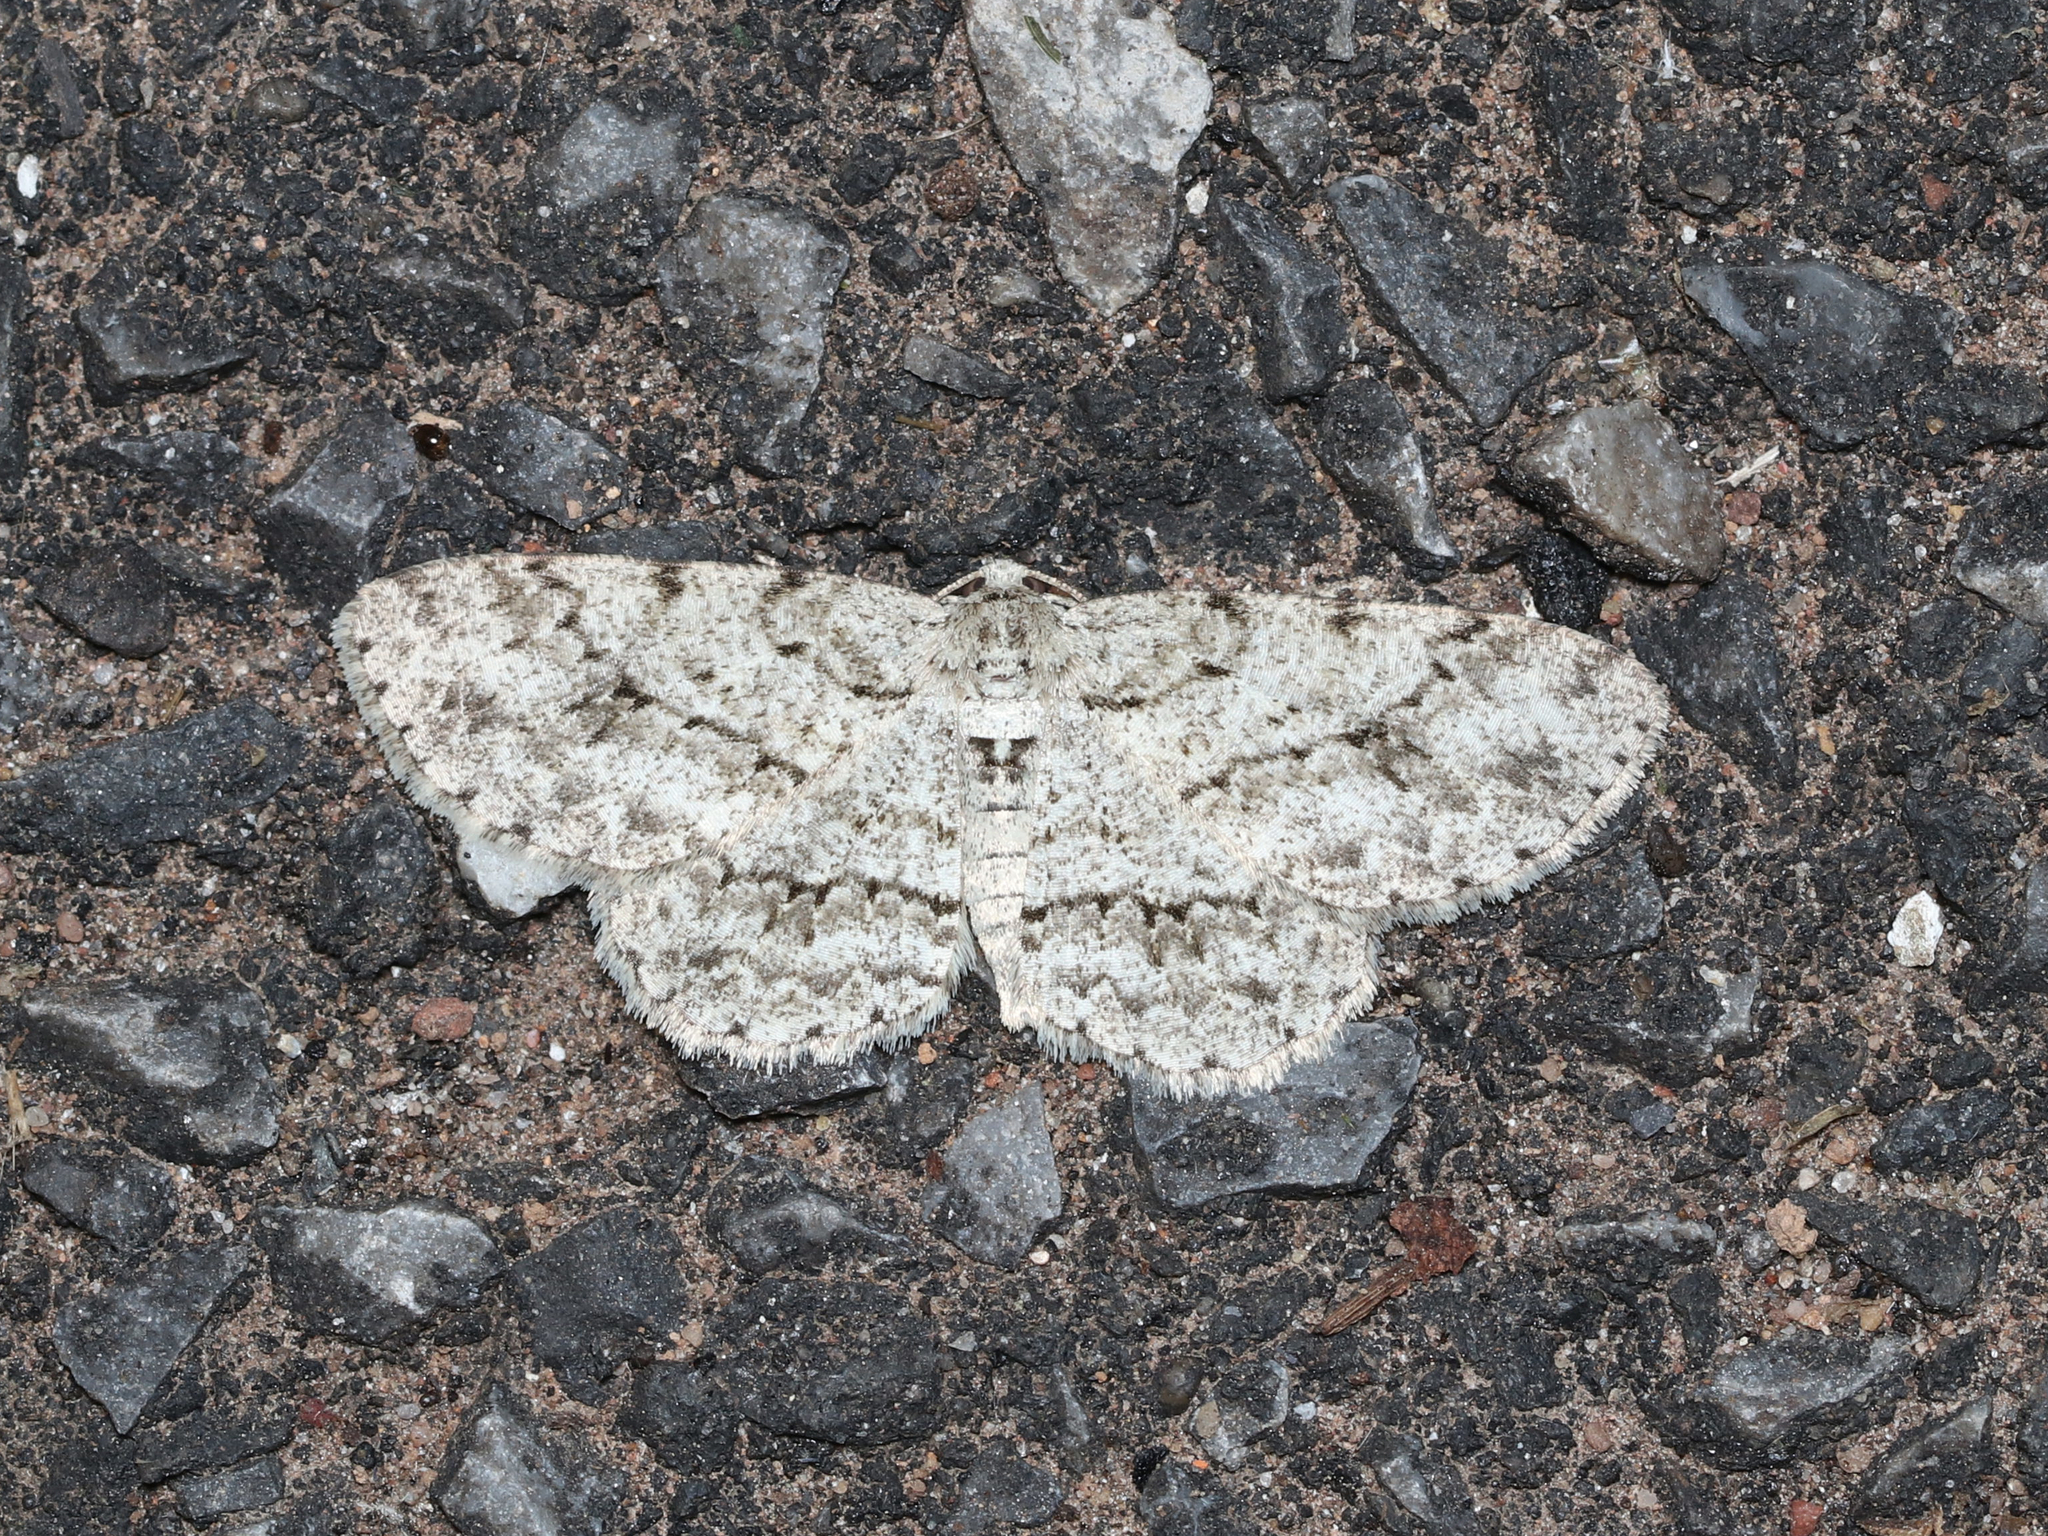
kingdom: Animalia
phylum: Arthropoda
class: Insecta
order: Lepidoptera
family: Geometridae
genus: Ectropis
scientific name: Ectropis crepuscularia
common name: Engrailed
